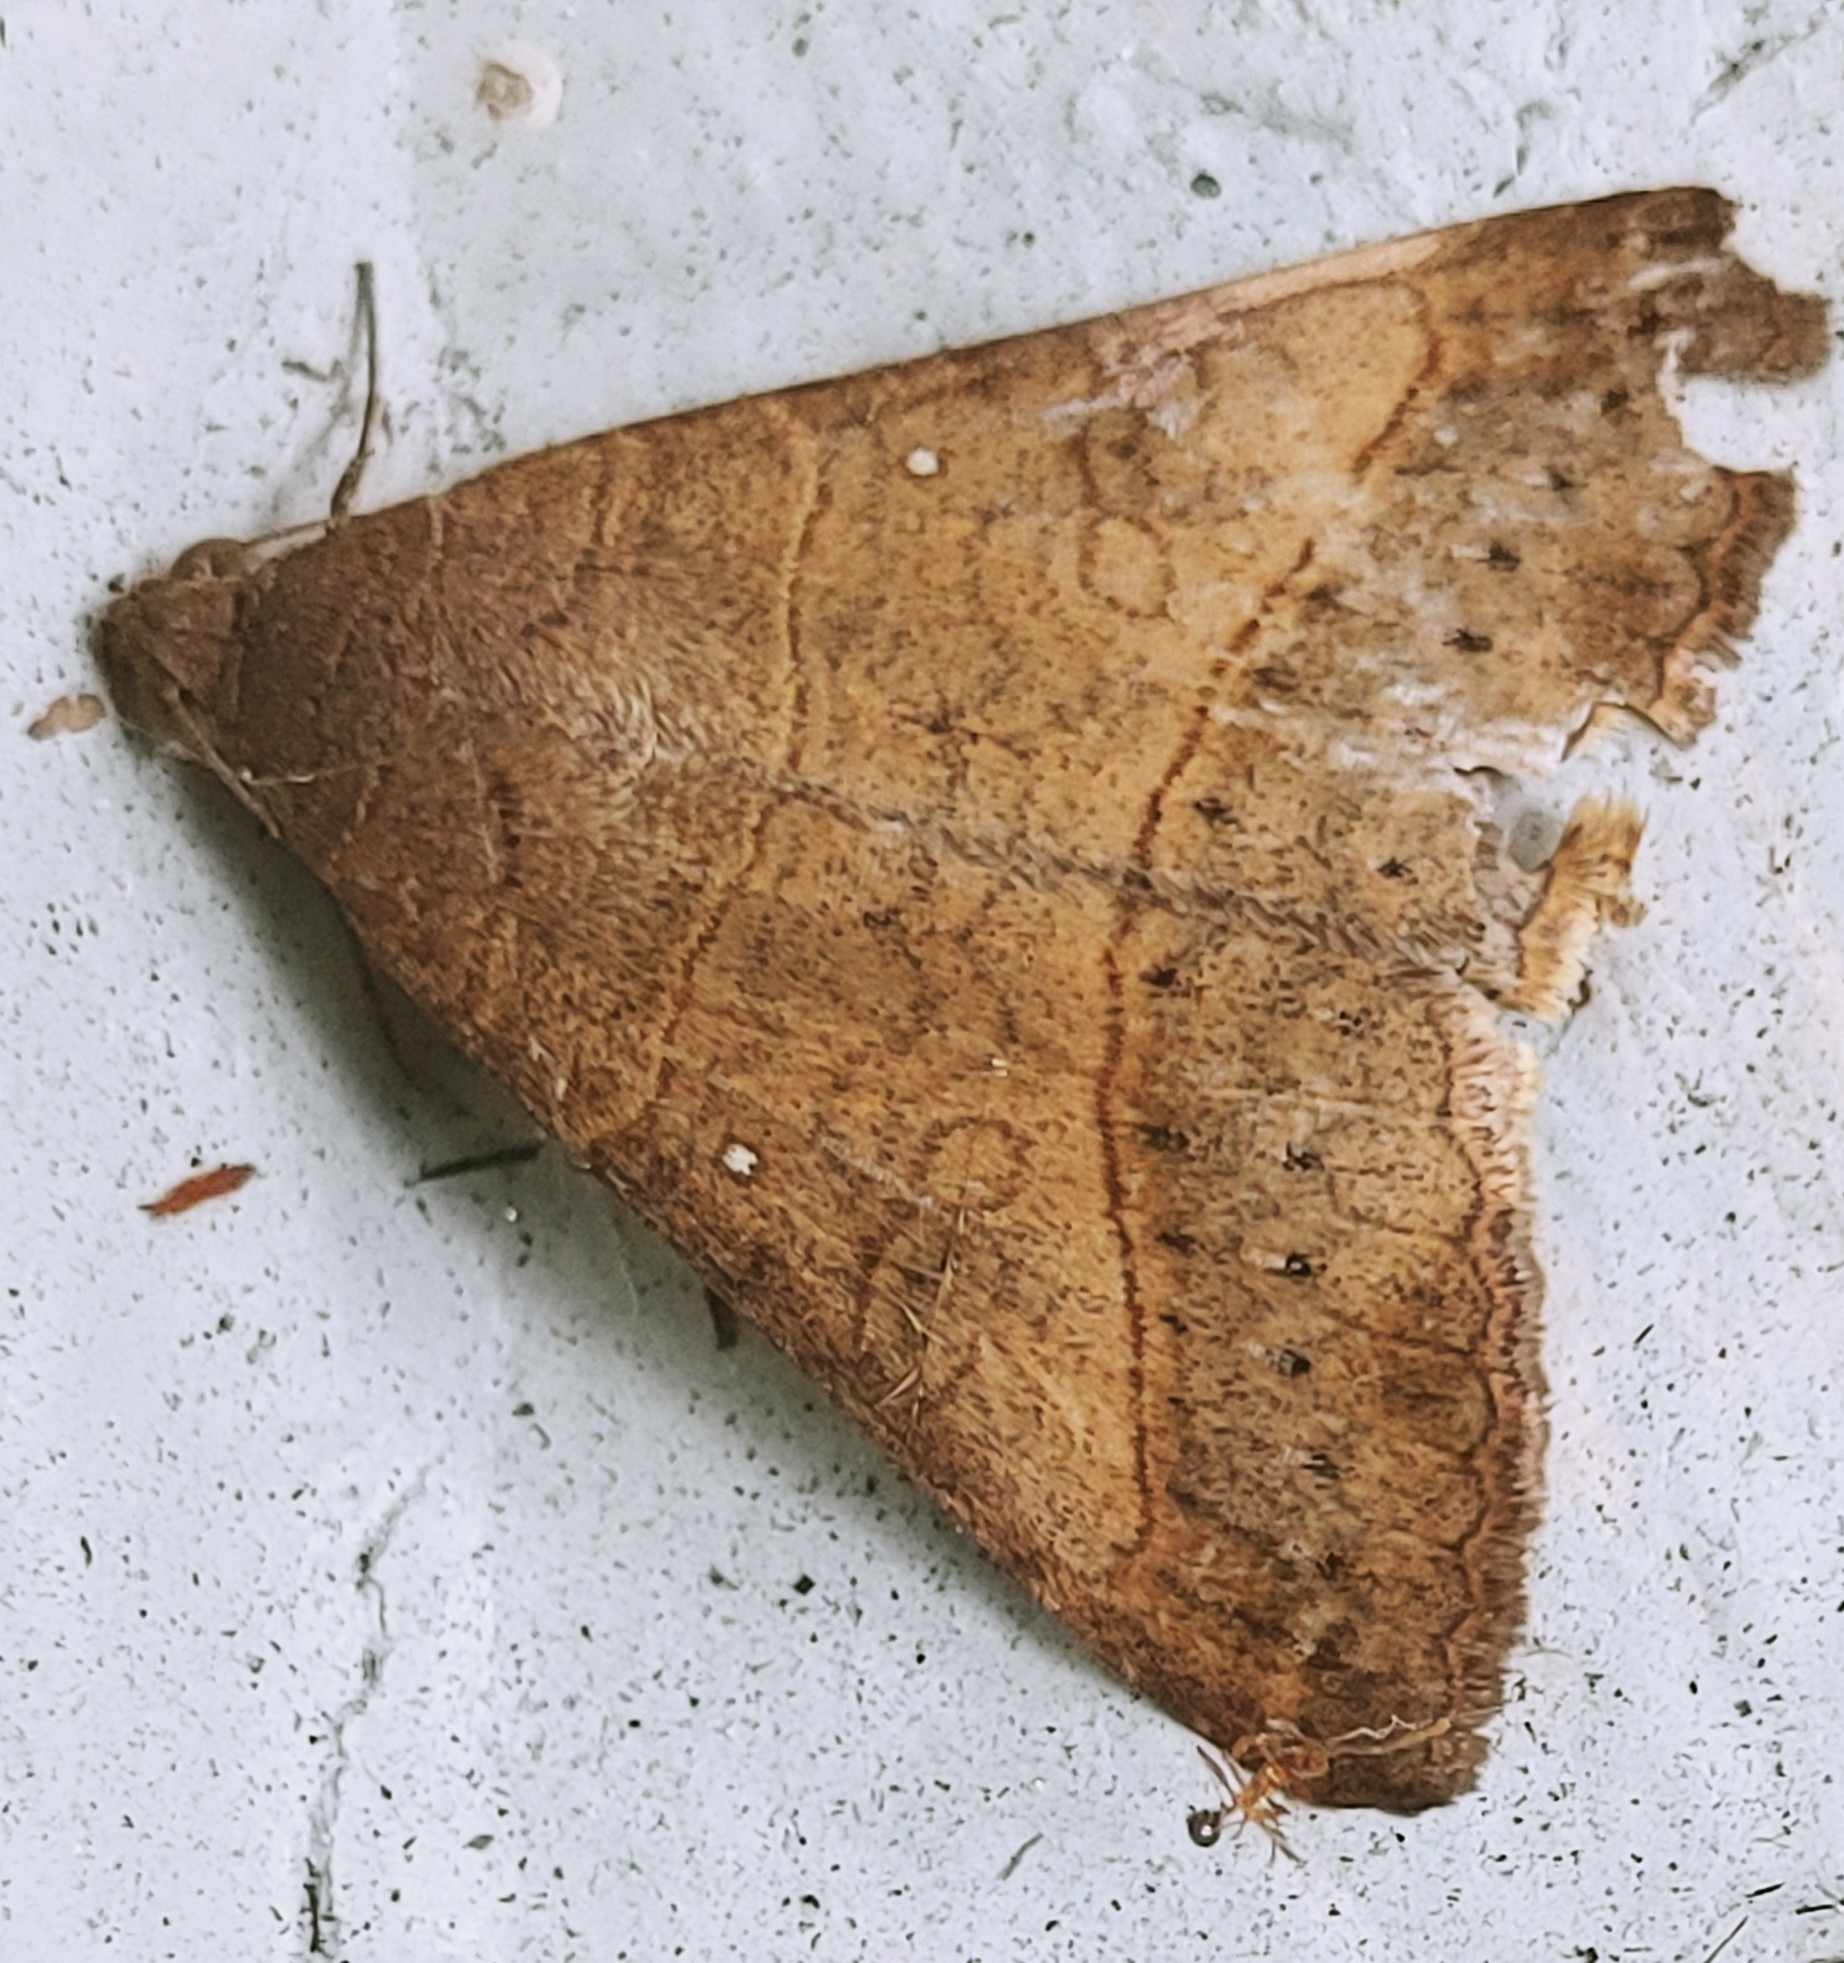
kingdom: Animalia
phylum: Arthropoda
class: Insecta
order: Lepidoptera
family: Erebidae
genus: Mocis
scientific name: Mocis disseverans
